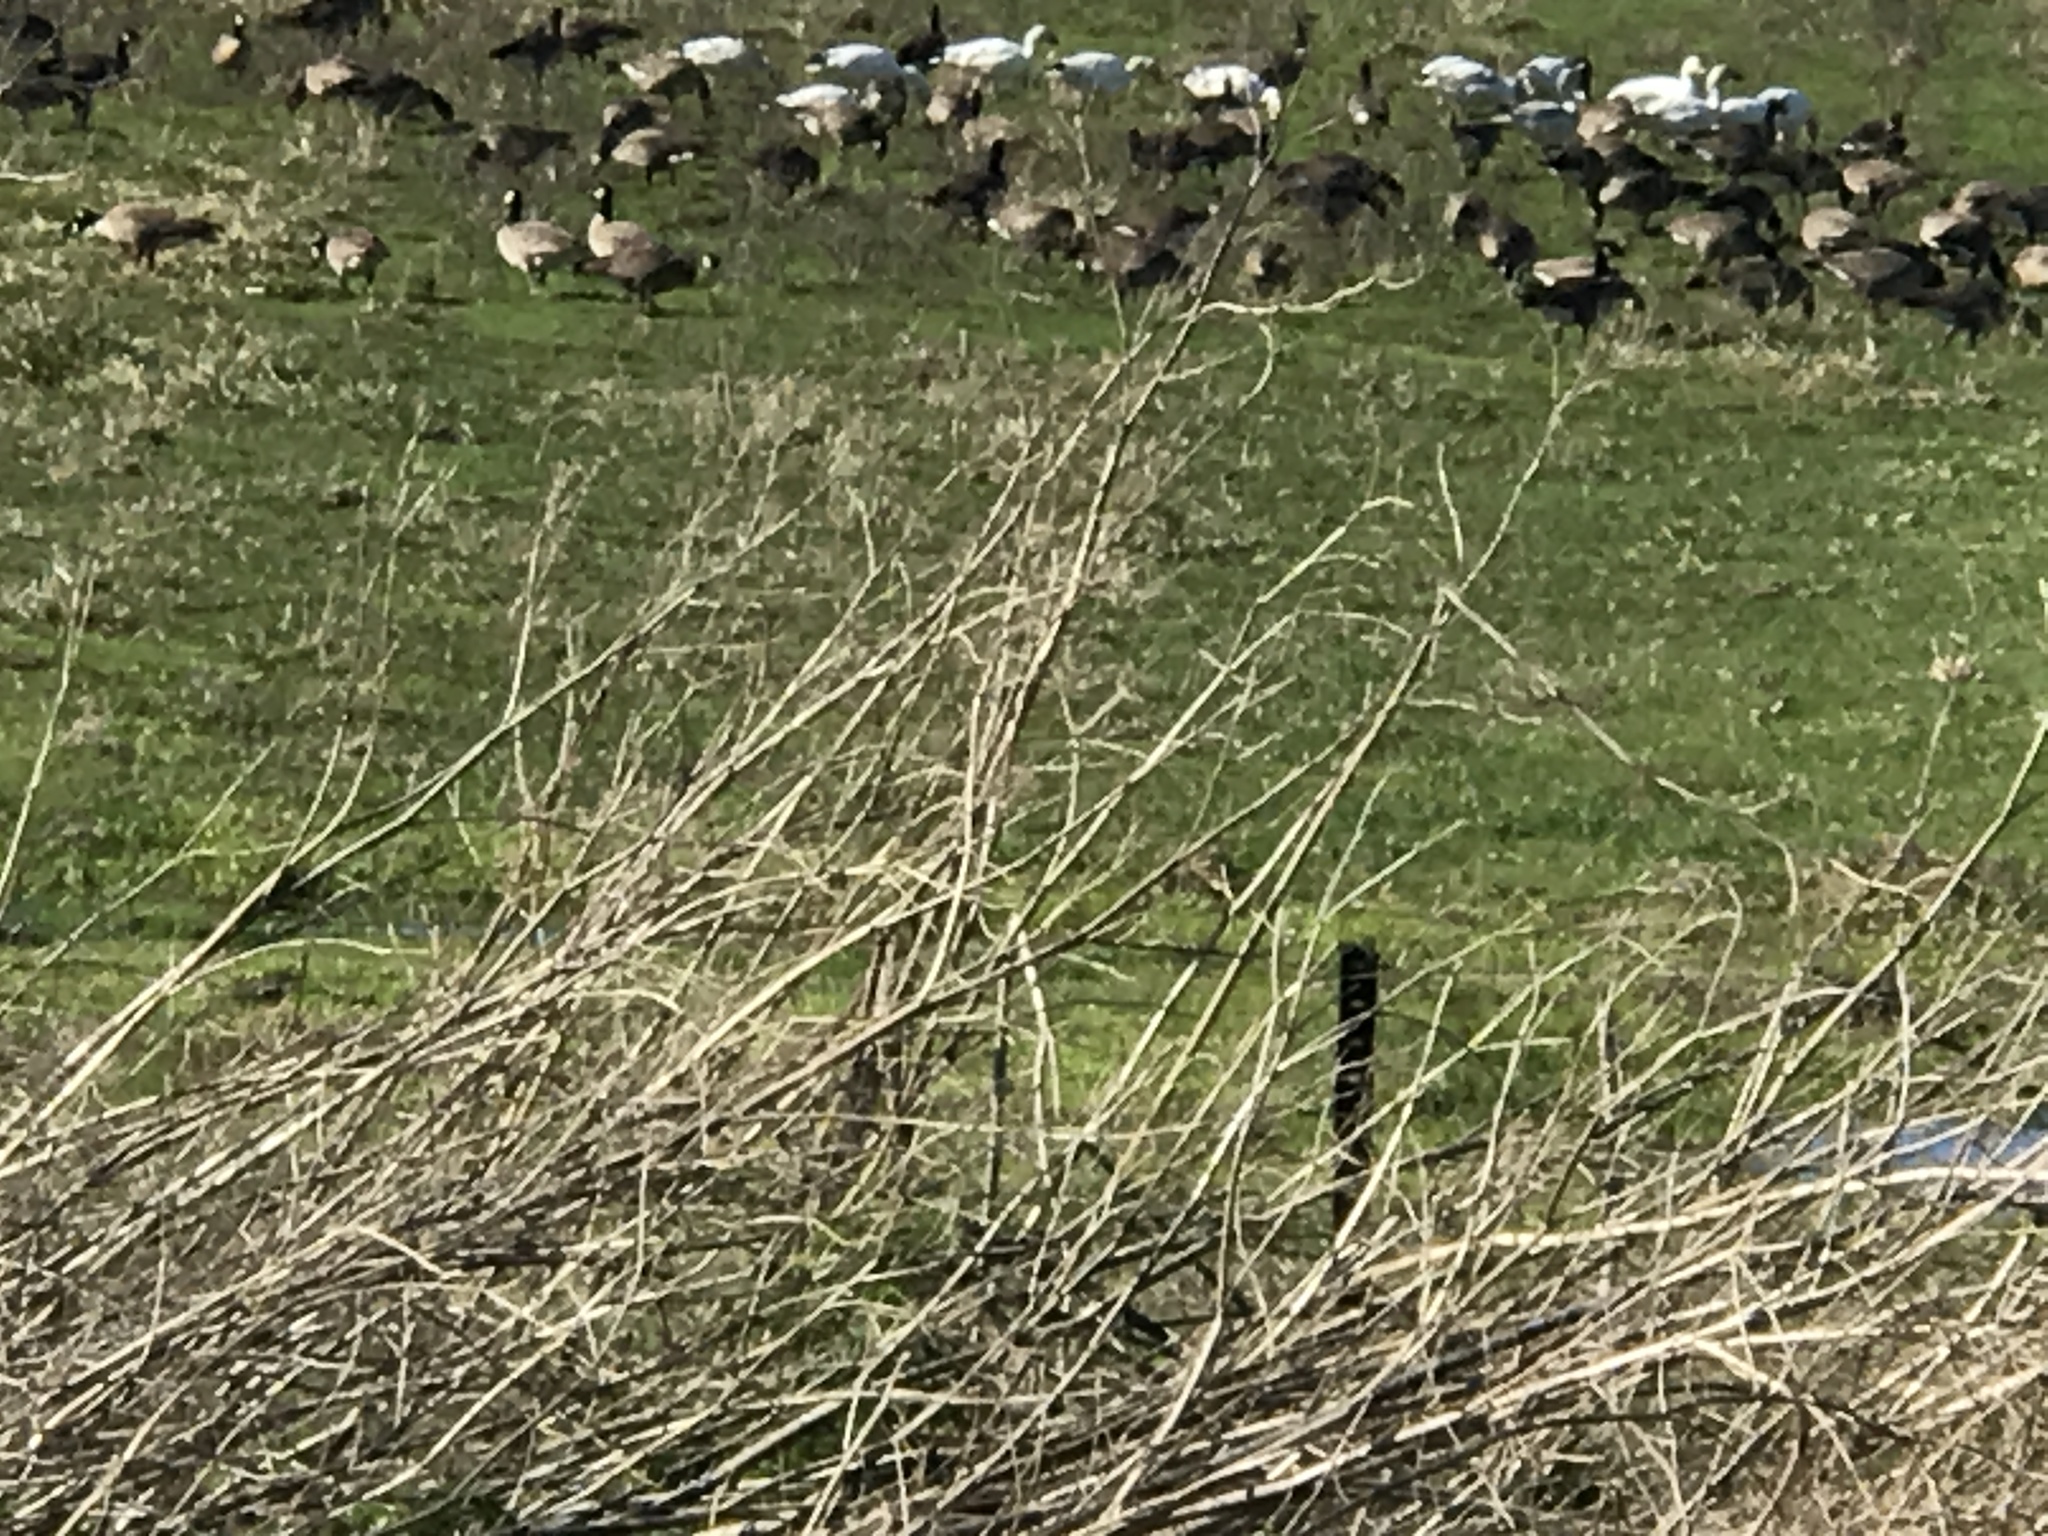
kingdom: Animalia
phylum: Chordata
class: Aves
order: Anseriformes
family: Anatidae
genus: Branta
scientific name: Branta hutchinsii
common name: Cackling goose
